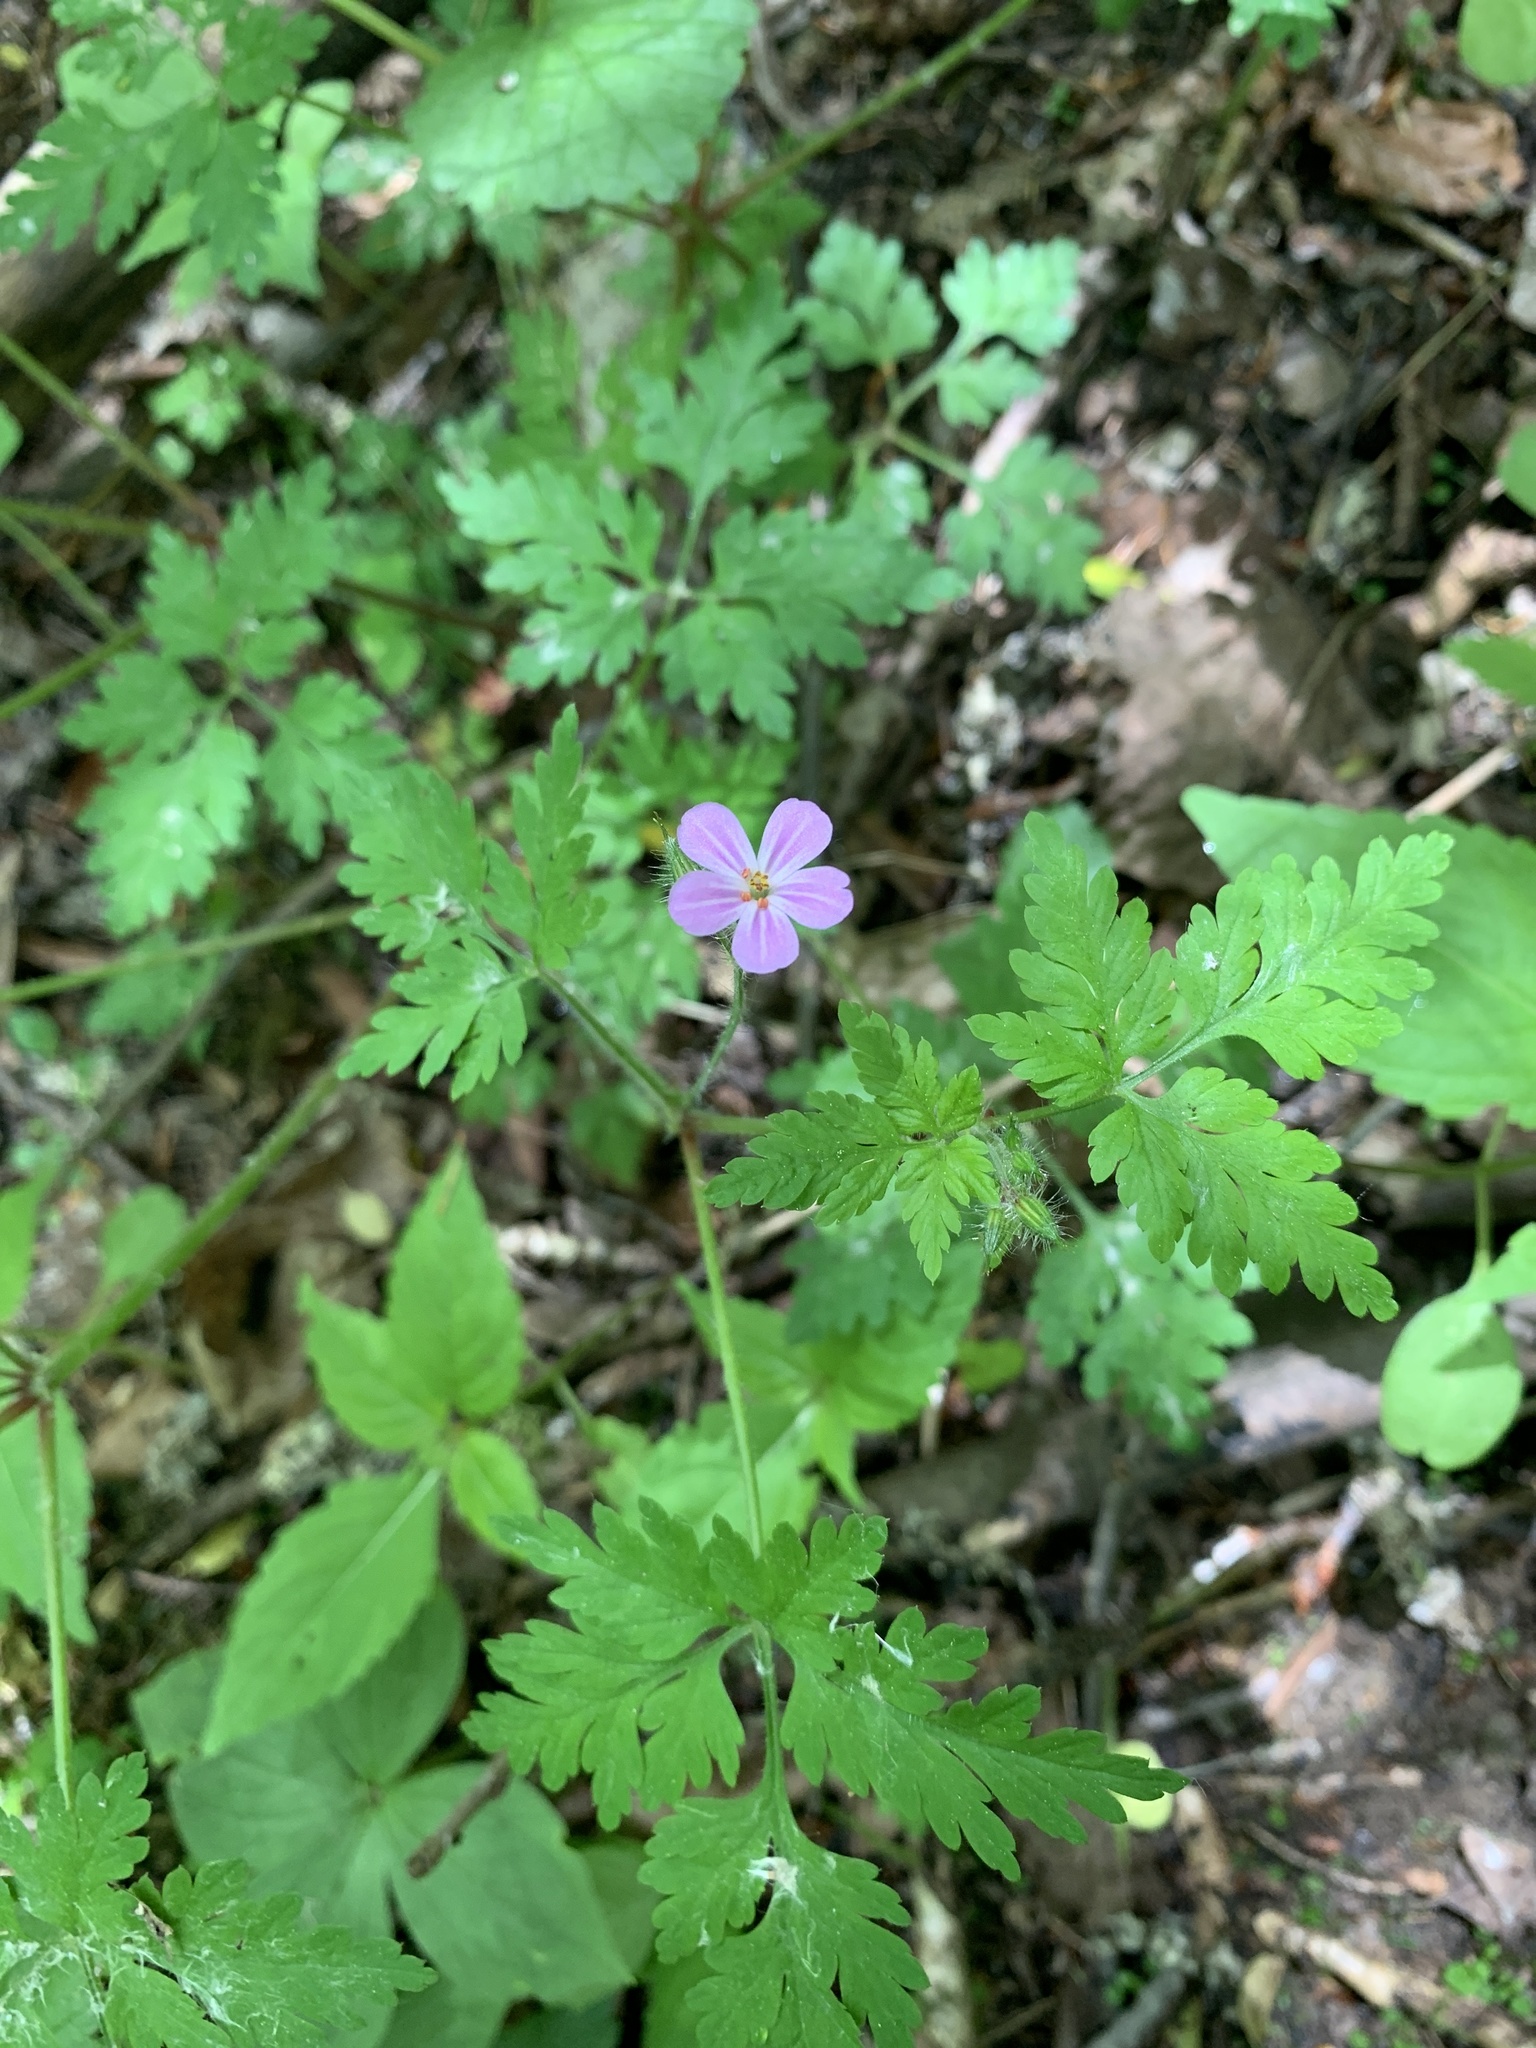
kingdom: Plantae
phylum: Tracheophyta
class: Magnoliopsida
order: Geraniales
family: Geraniaceae
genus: Geranium
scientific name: Geranium robertianum
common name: Herb-robert
